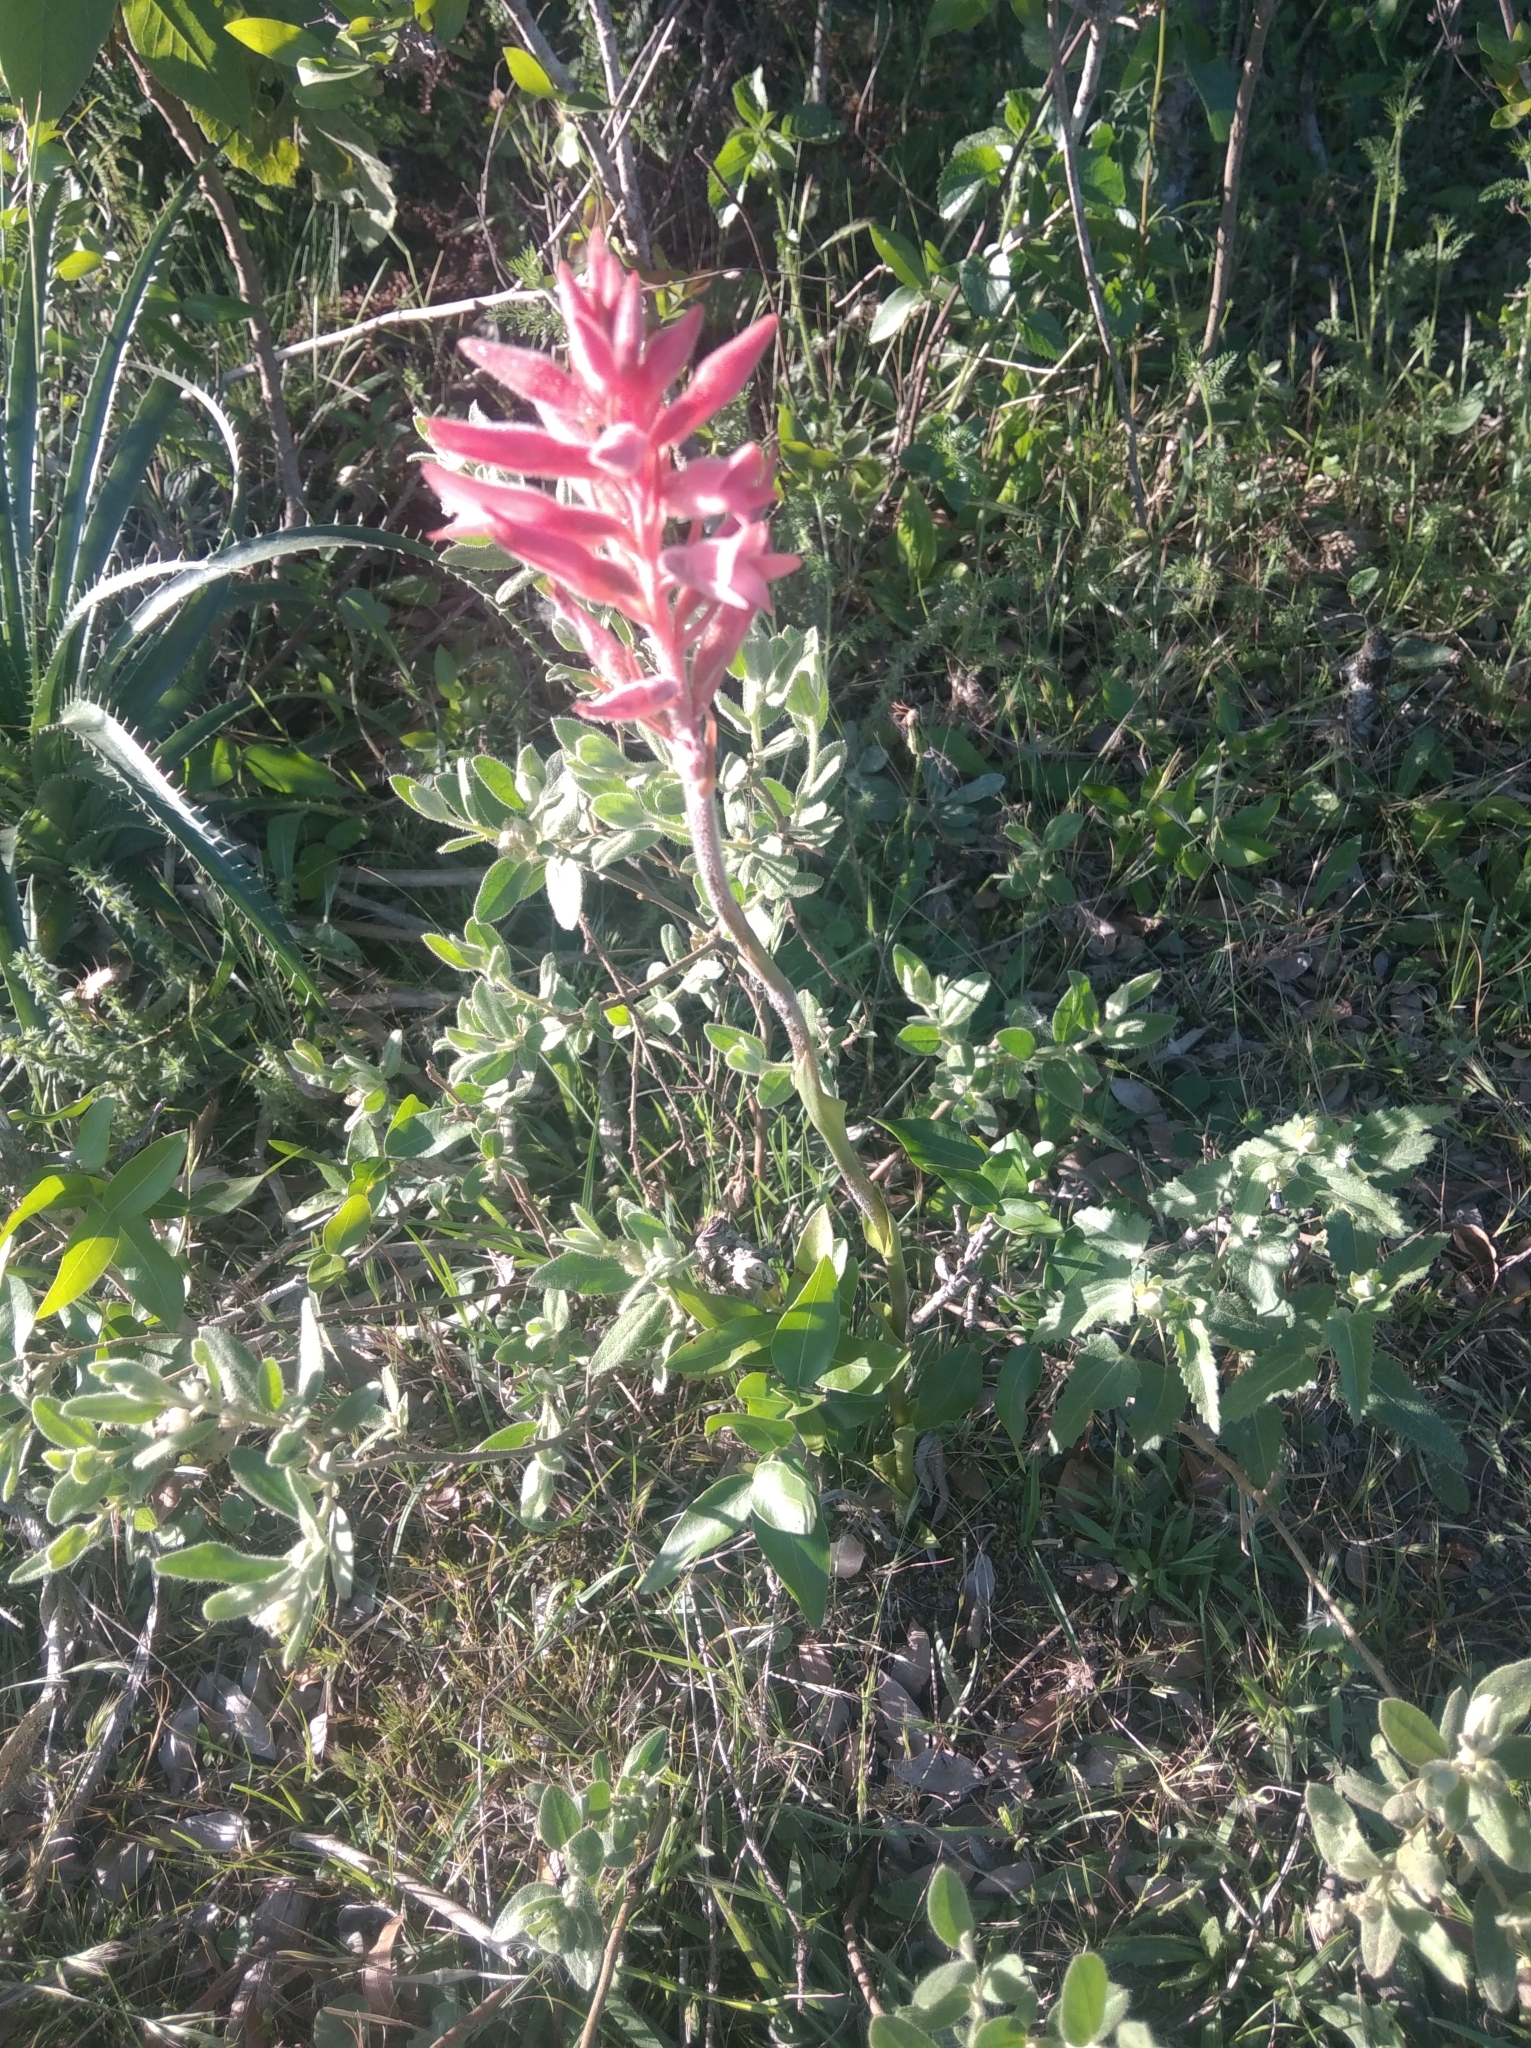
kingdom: Plantae
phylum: Tracheophyta
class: Liliopsida
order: Asparagales
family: Orchidaceae
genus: Sacoila
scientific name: Sacoila lanceolata
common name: Leafless beaked ladiestresses
